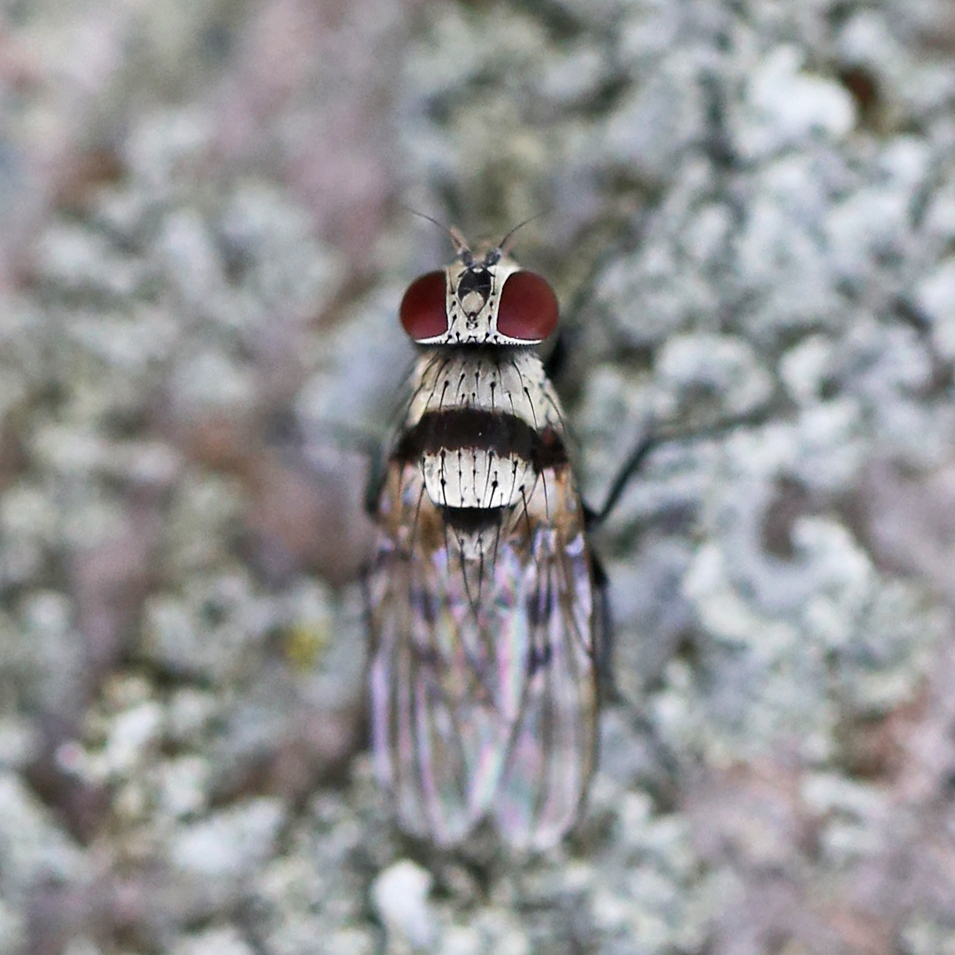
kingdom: Animalia
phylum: Arthropoda
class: Insecta
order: Diptera
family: Anthomyiidae
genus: Anthomyia
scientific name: Anthomyia illocata
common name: Fly
